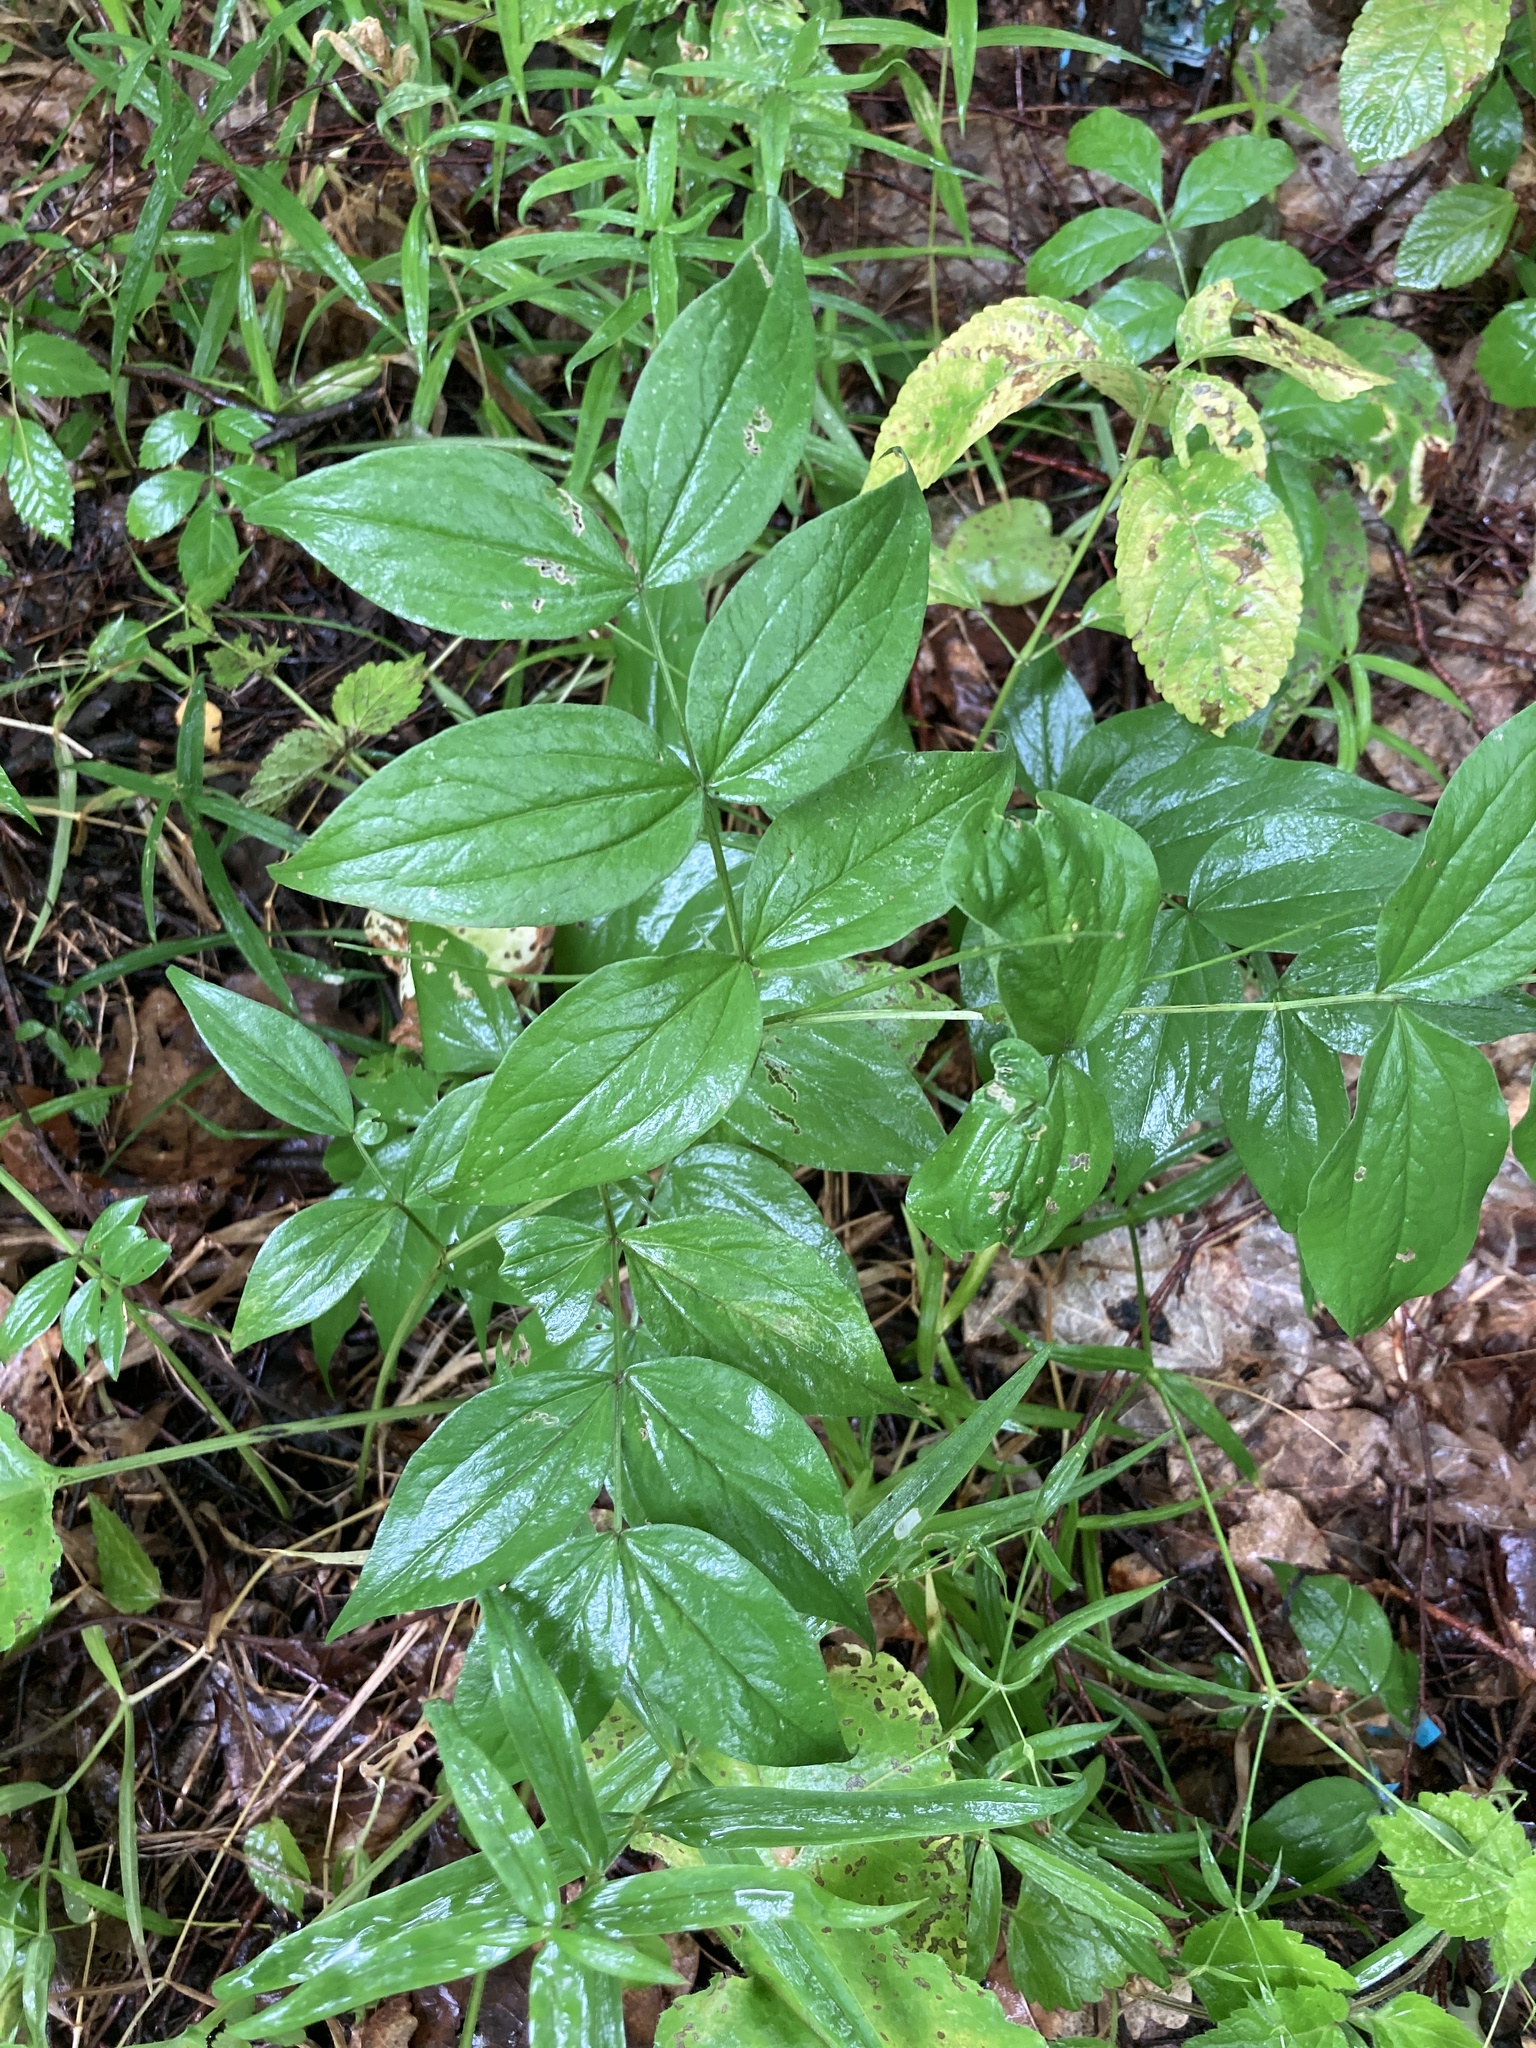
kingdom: Plantae
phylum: Tracheophyta
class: Magnoliopsida
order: Fabales
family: Fabaceae
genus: Lathyrus
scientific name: Lathyrus vernus
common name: Spring pea
